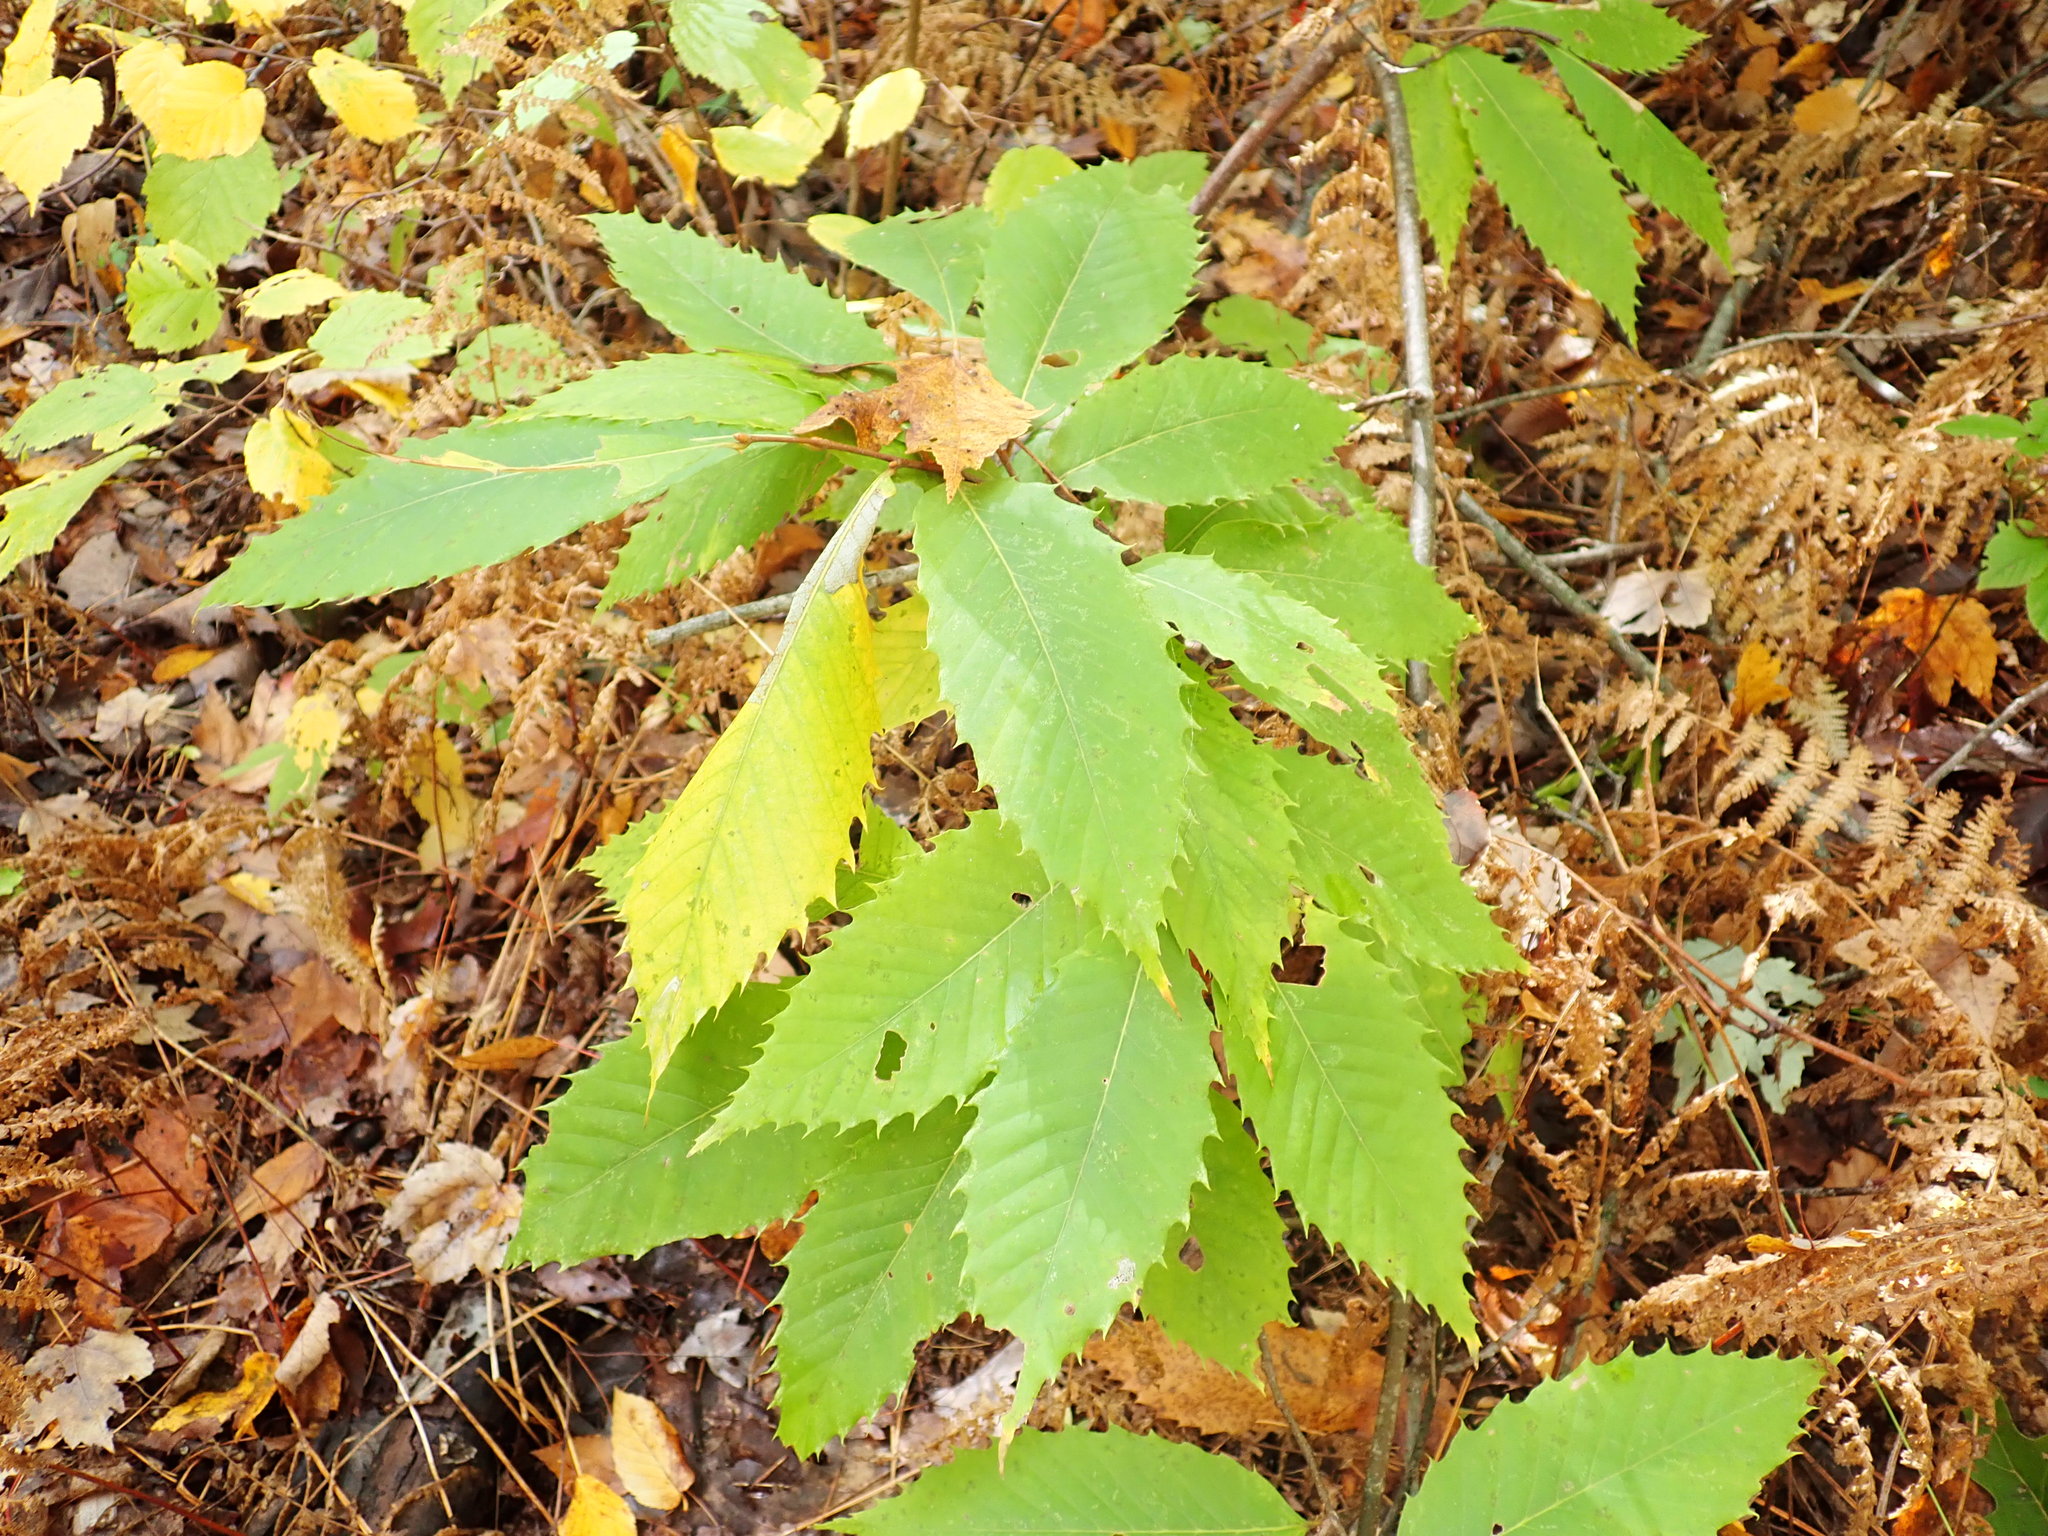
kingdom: Plantae
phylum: Tracheophyta
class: Magnoliopsida
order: Fagales
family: Fagaceae
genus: Castanea
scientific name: Castanea dentata
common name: American chestnut
